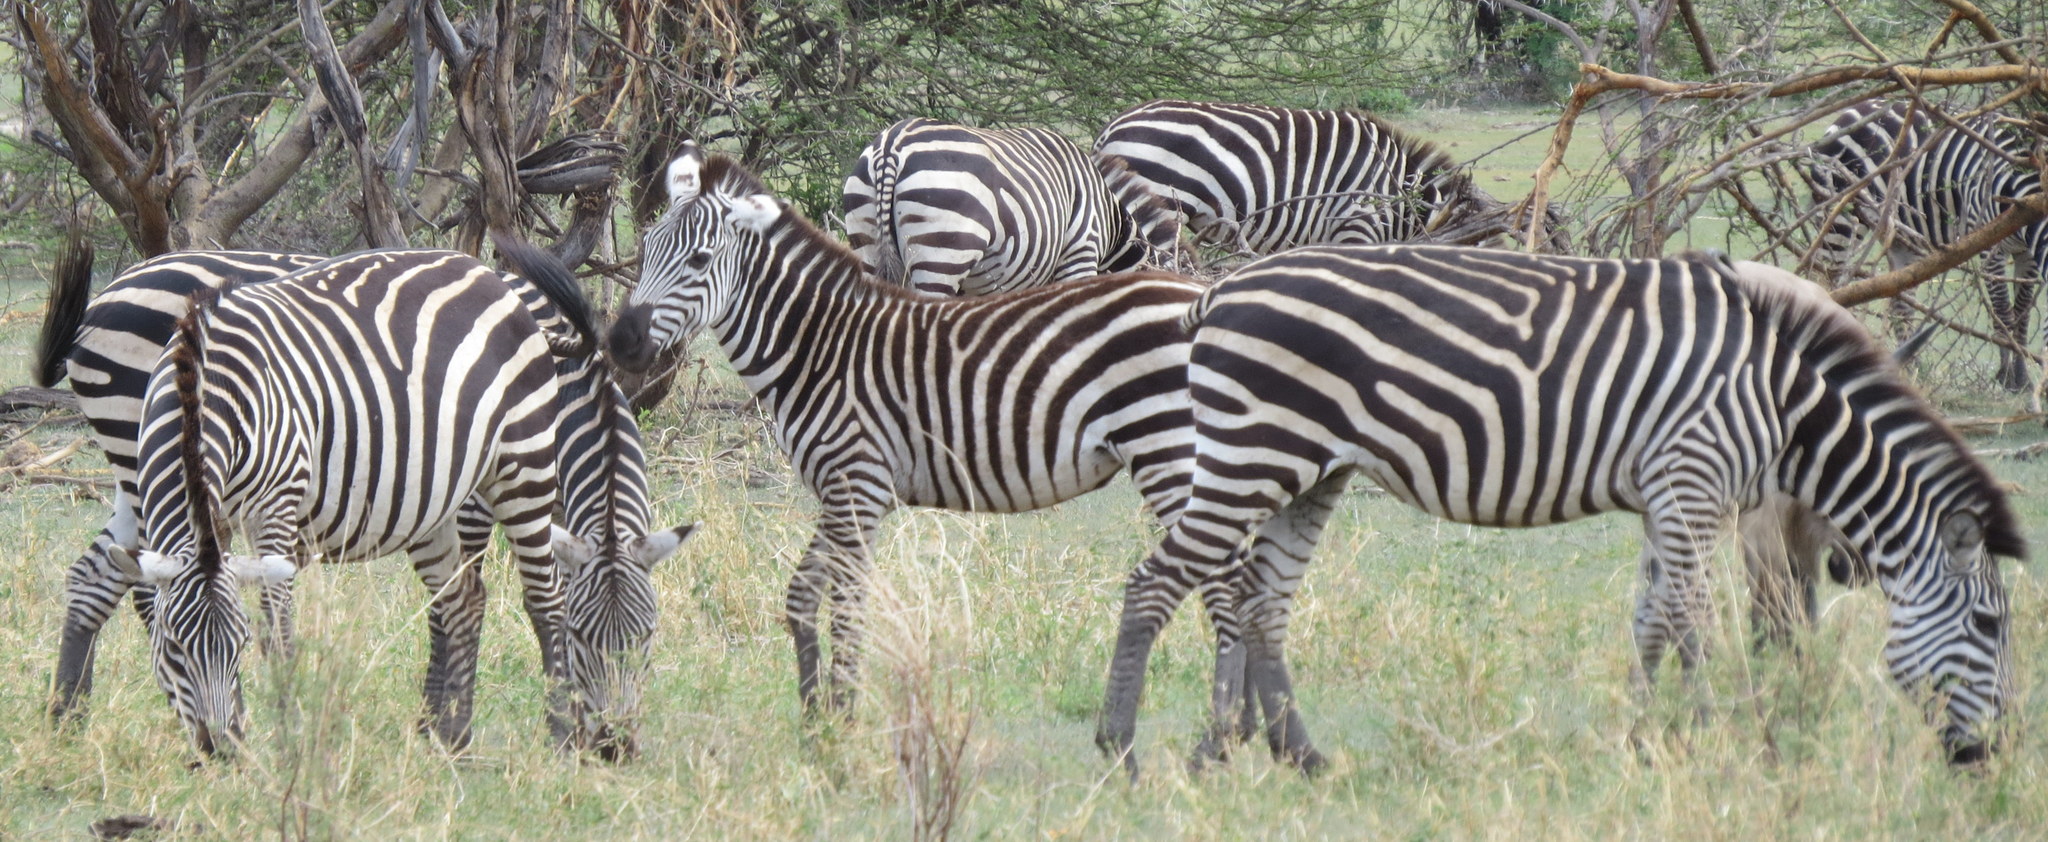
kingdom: Animalia
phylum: Chordata
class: Mammalia
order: Perissodactyla
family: Equidae
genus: Equus
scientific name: Equus quagga
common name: Plains zebra
